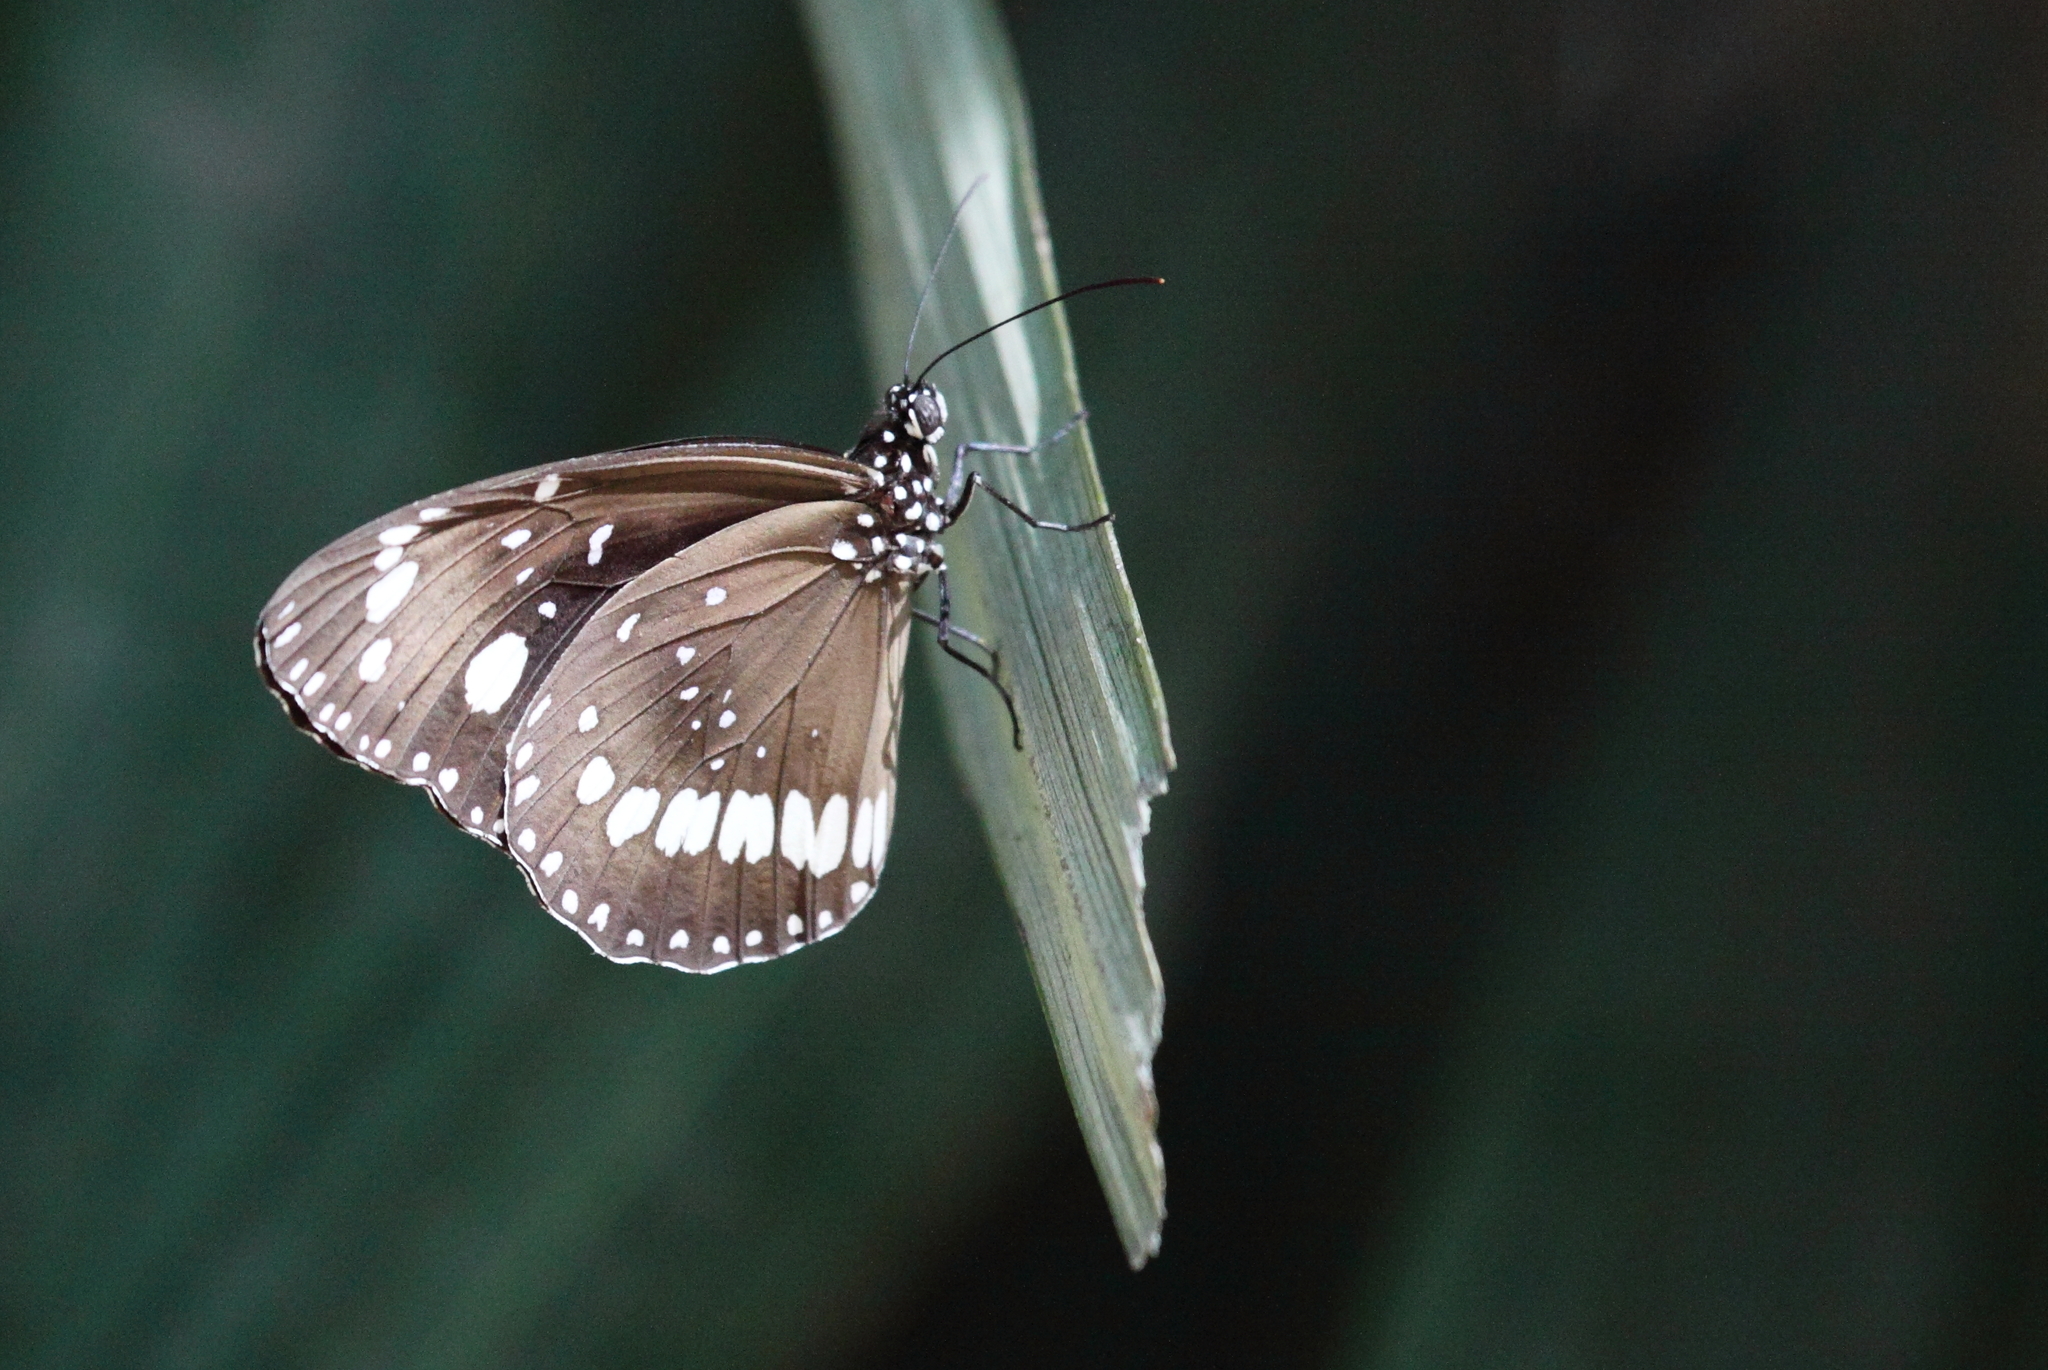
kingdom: Animalia
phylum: Arthropoda
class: Insecta
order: Lepidoptera
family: Nymphalidae
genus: Euploea
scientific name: Euploea core
